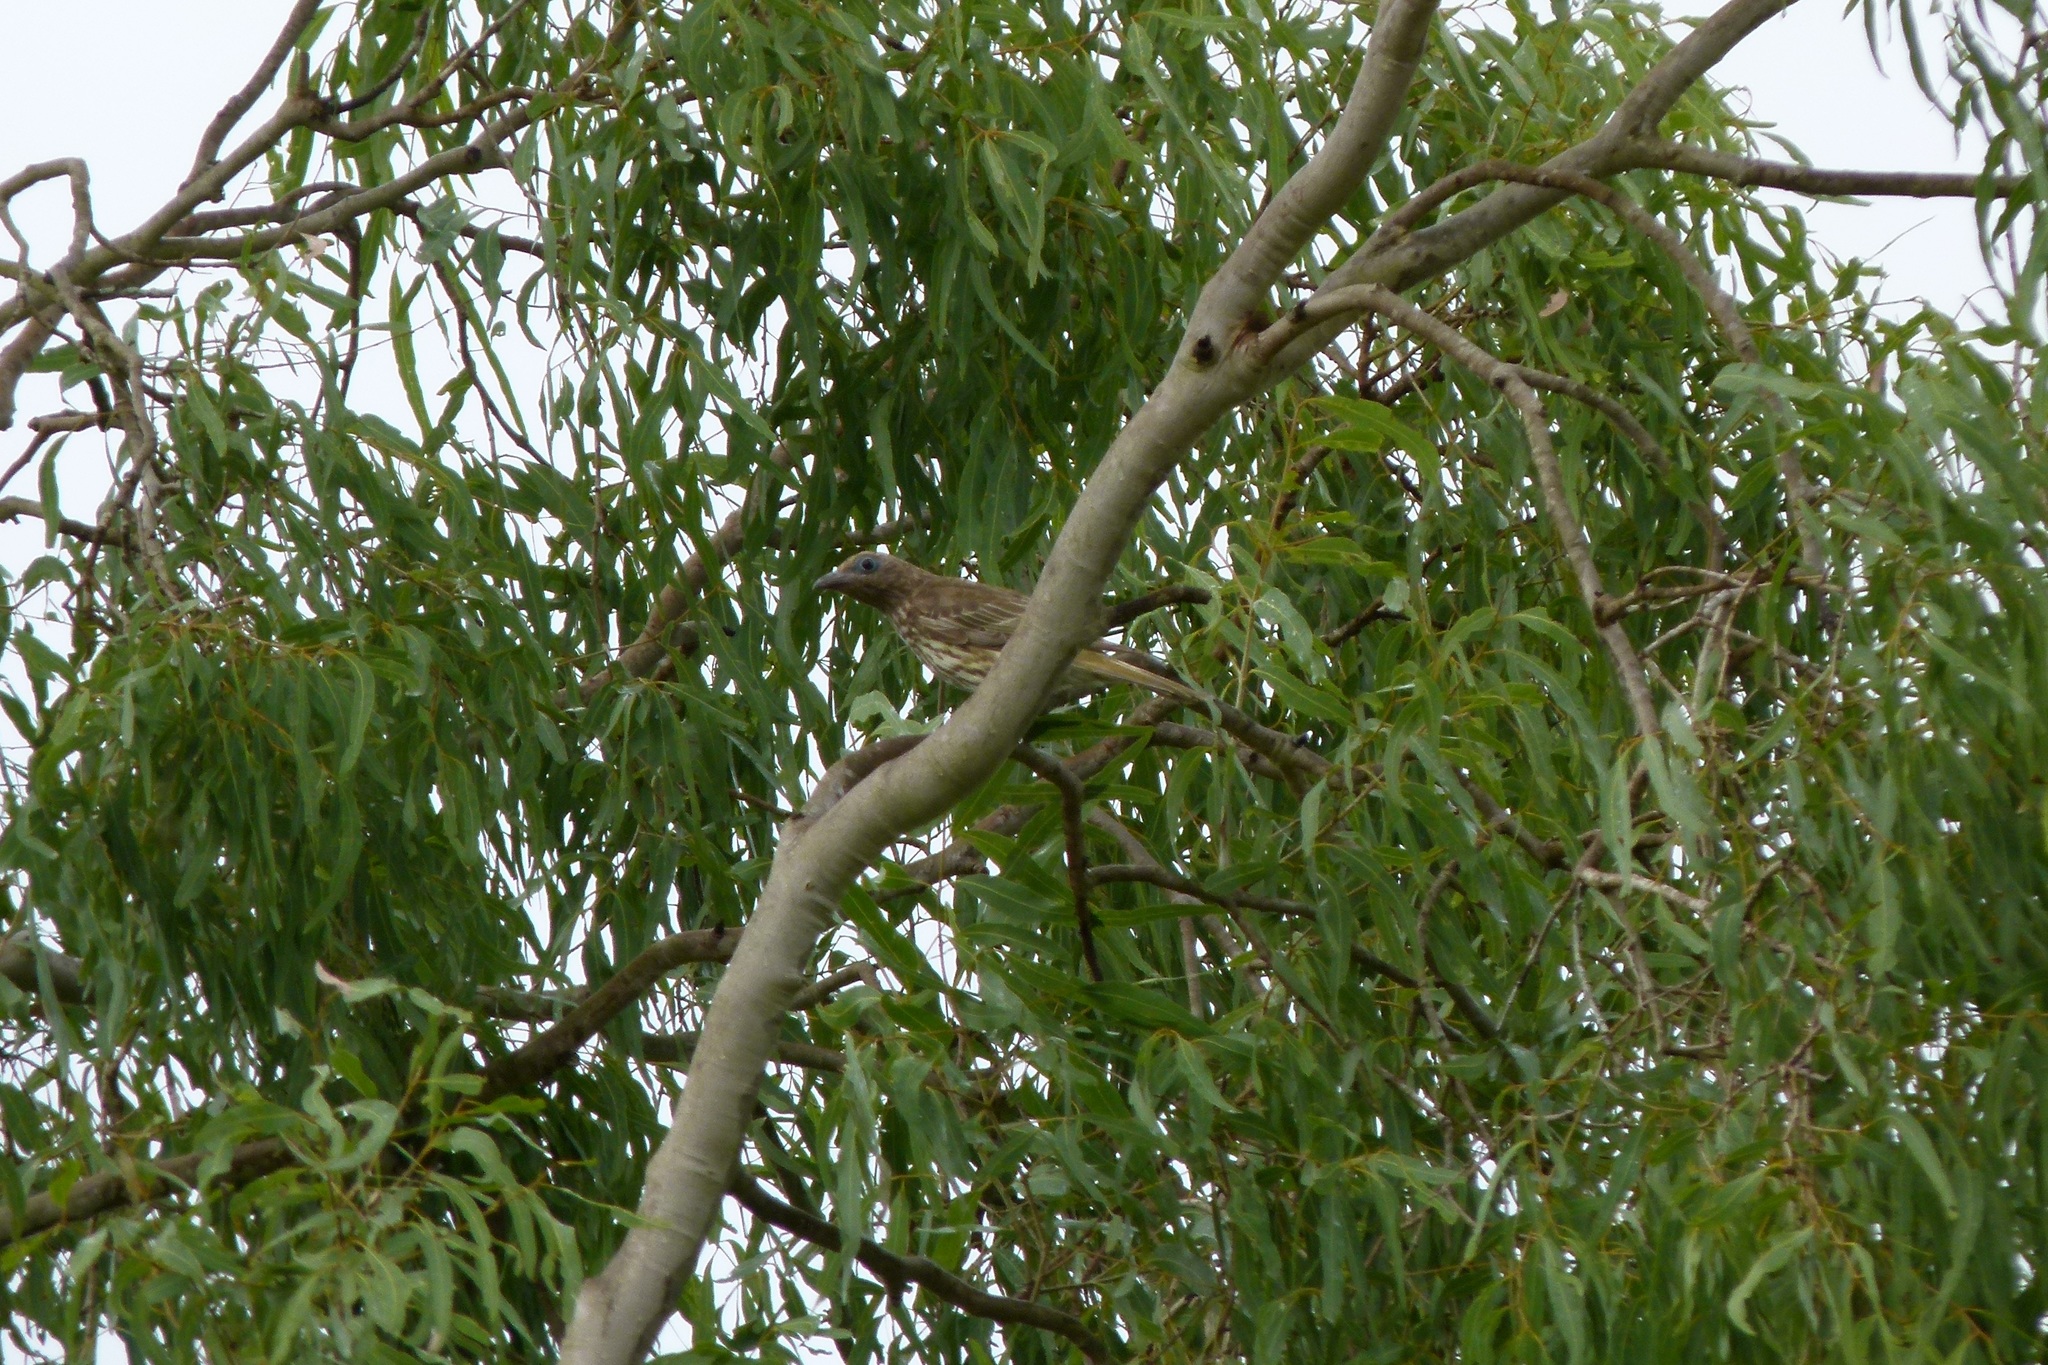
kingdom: Animalia
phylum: Chordata
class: Aves
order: Passeriformes
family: Oriolidae
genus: Sphecotheres
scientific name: Sphecotheres vieilloti
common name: Australasian figbird
